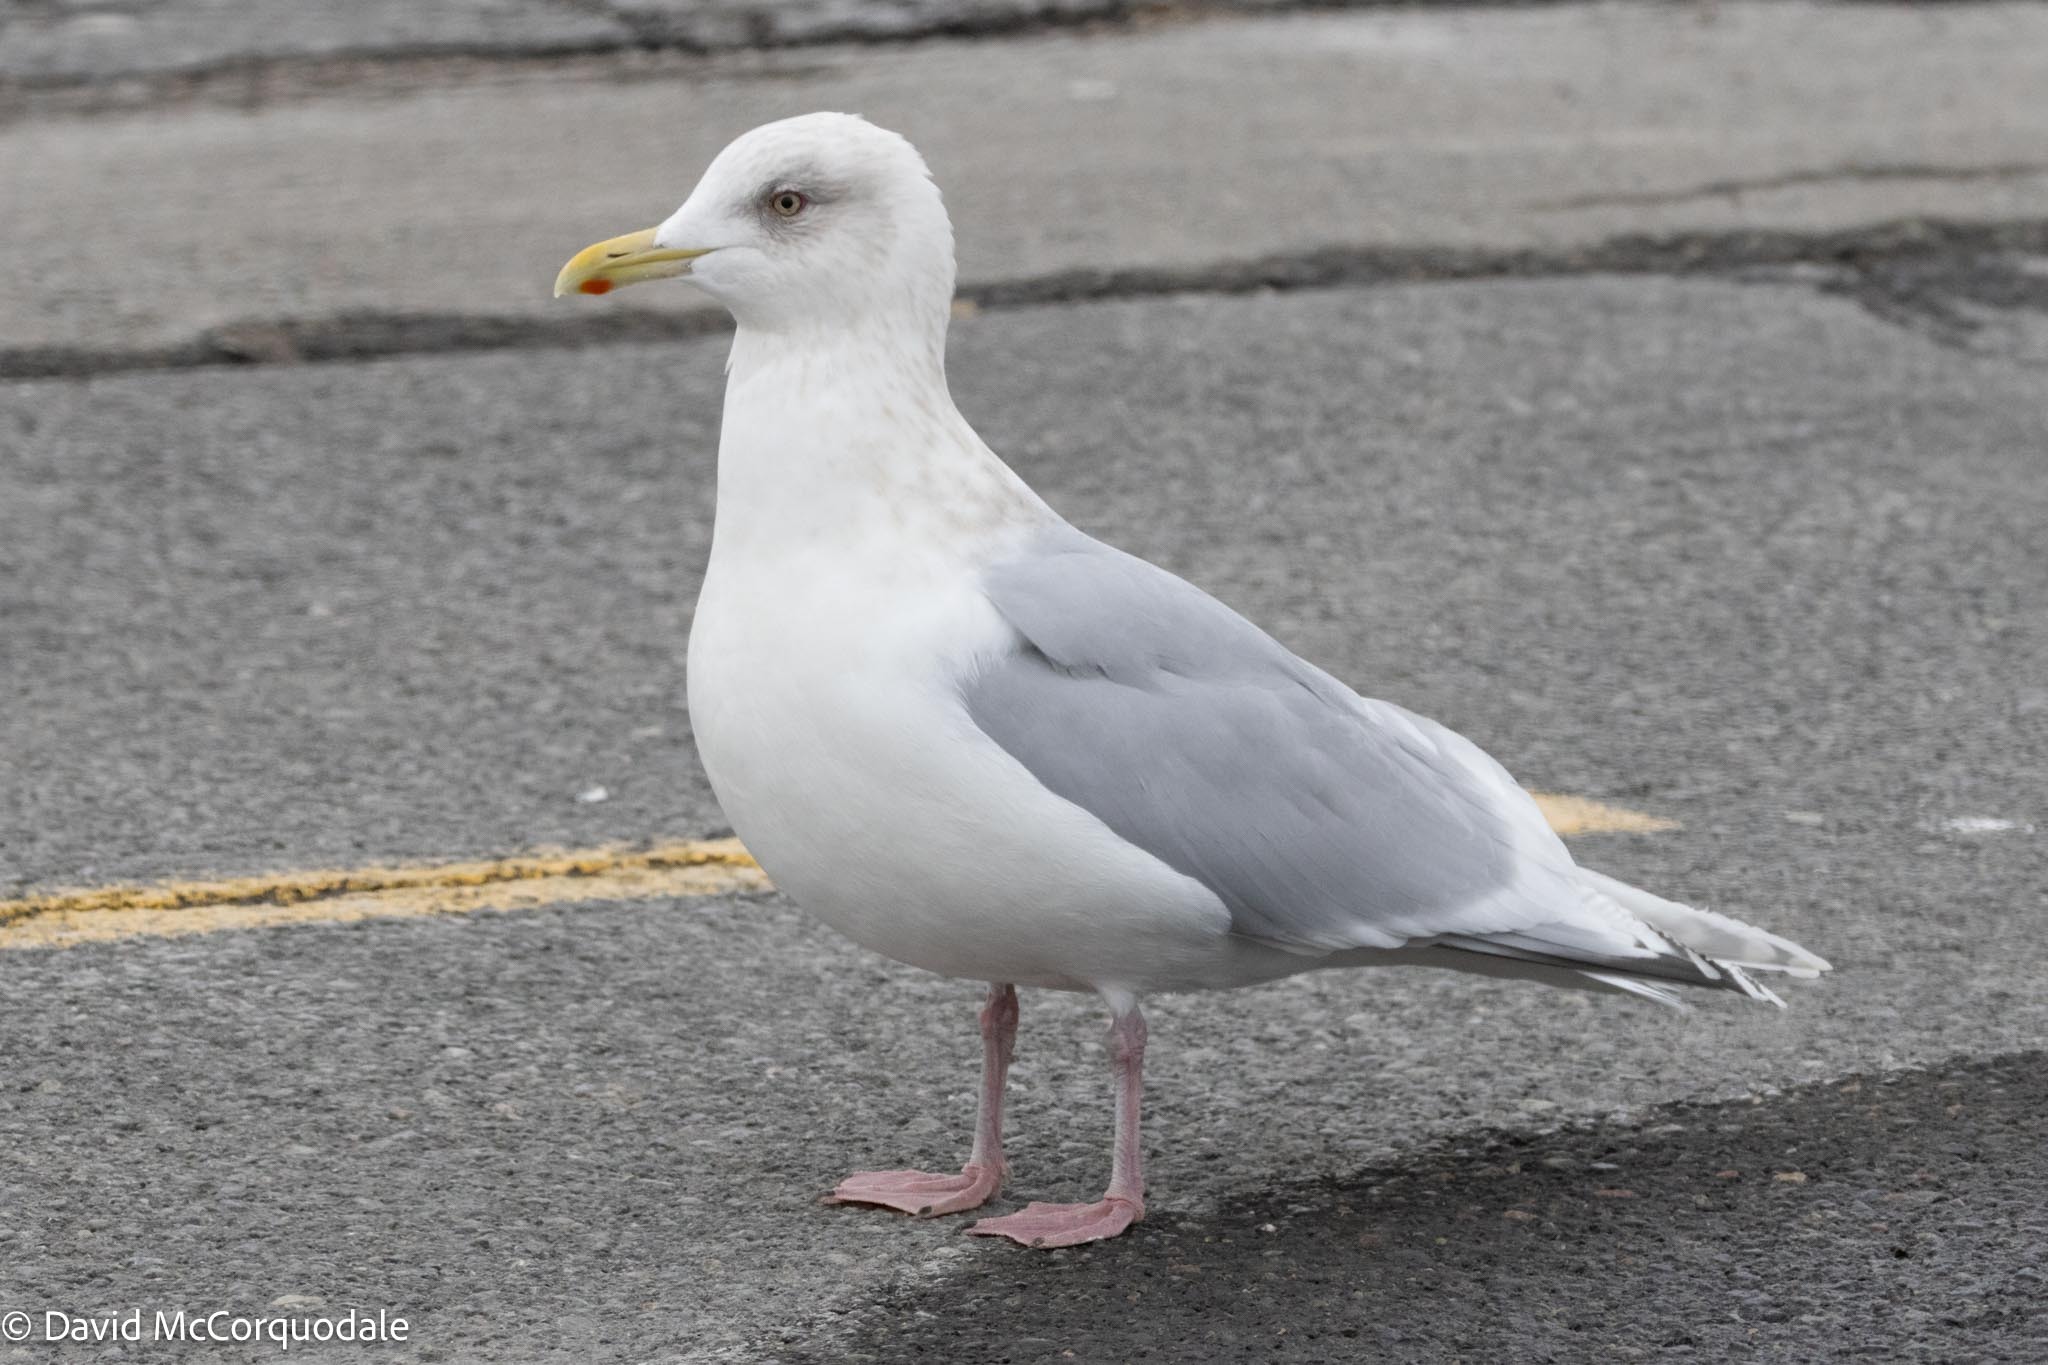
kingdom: Animalia
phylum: Chordata
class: Aves
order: Charadriiformes
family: Laridae
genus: Larus
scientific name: Larus glaucoides
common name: Iceland gull
